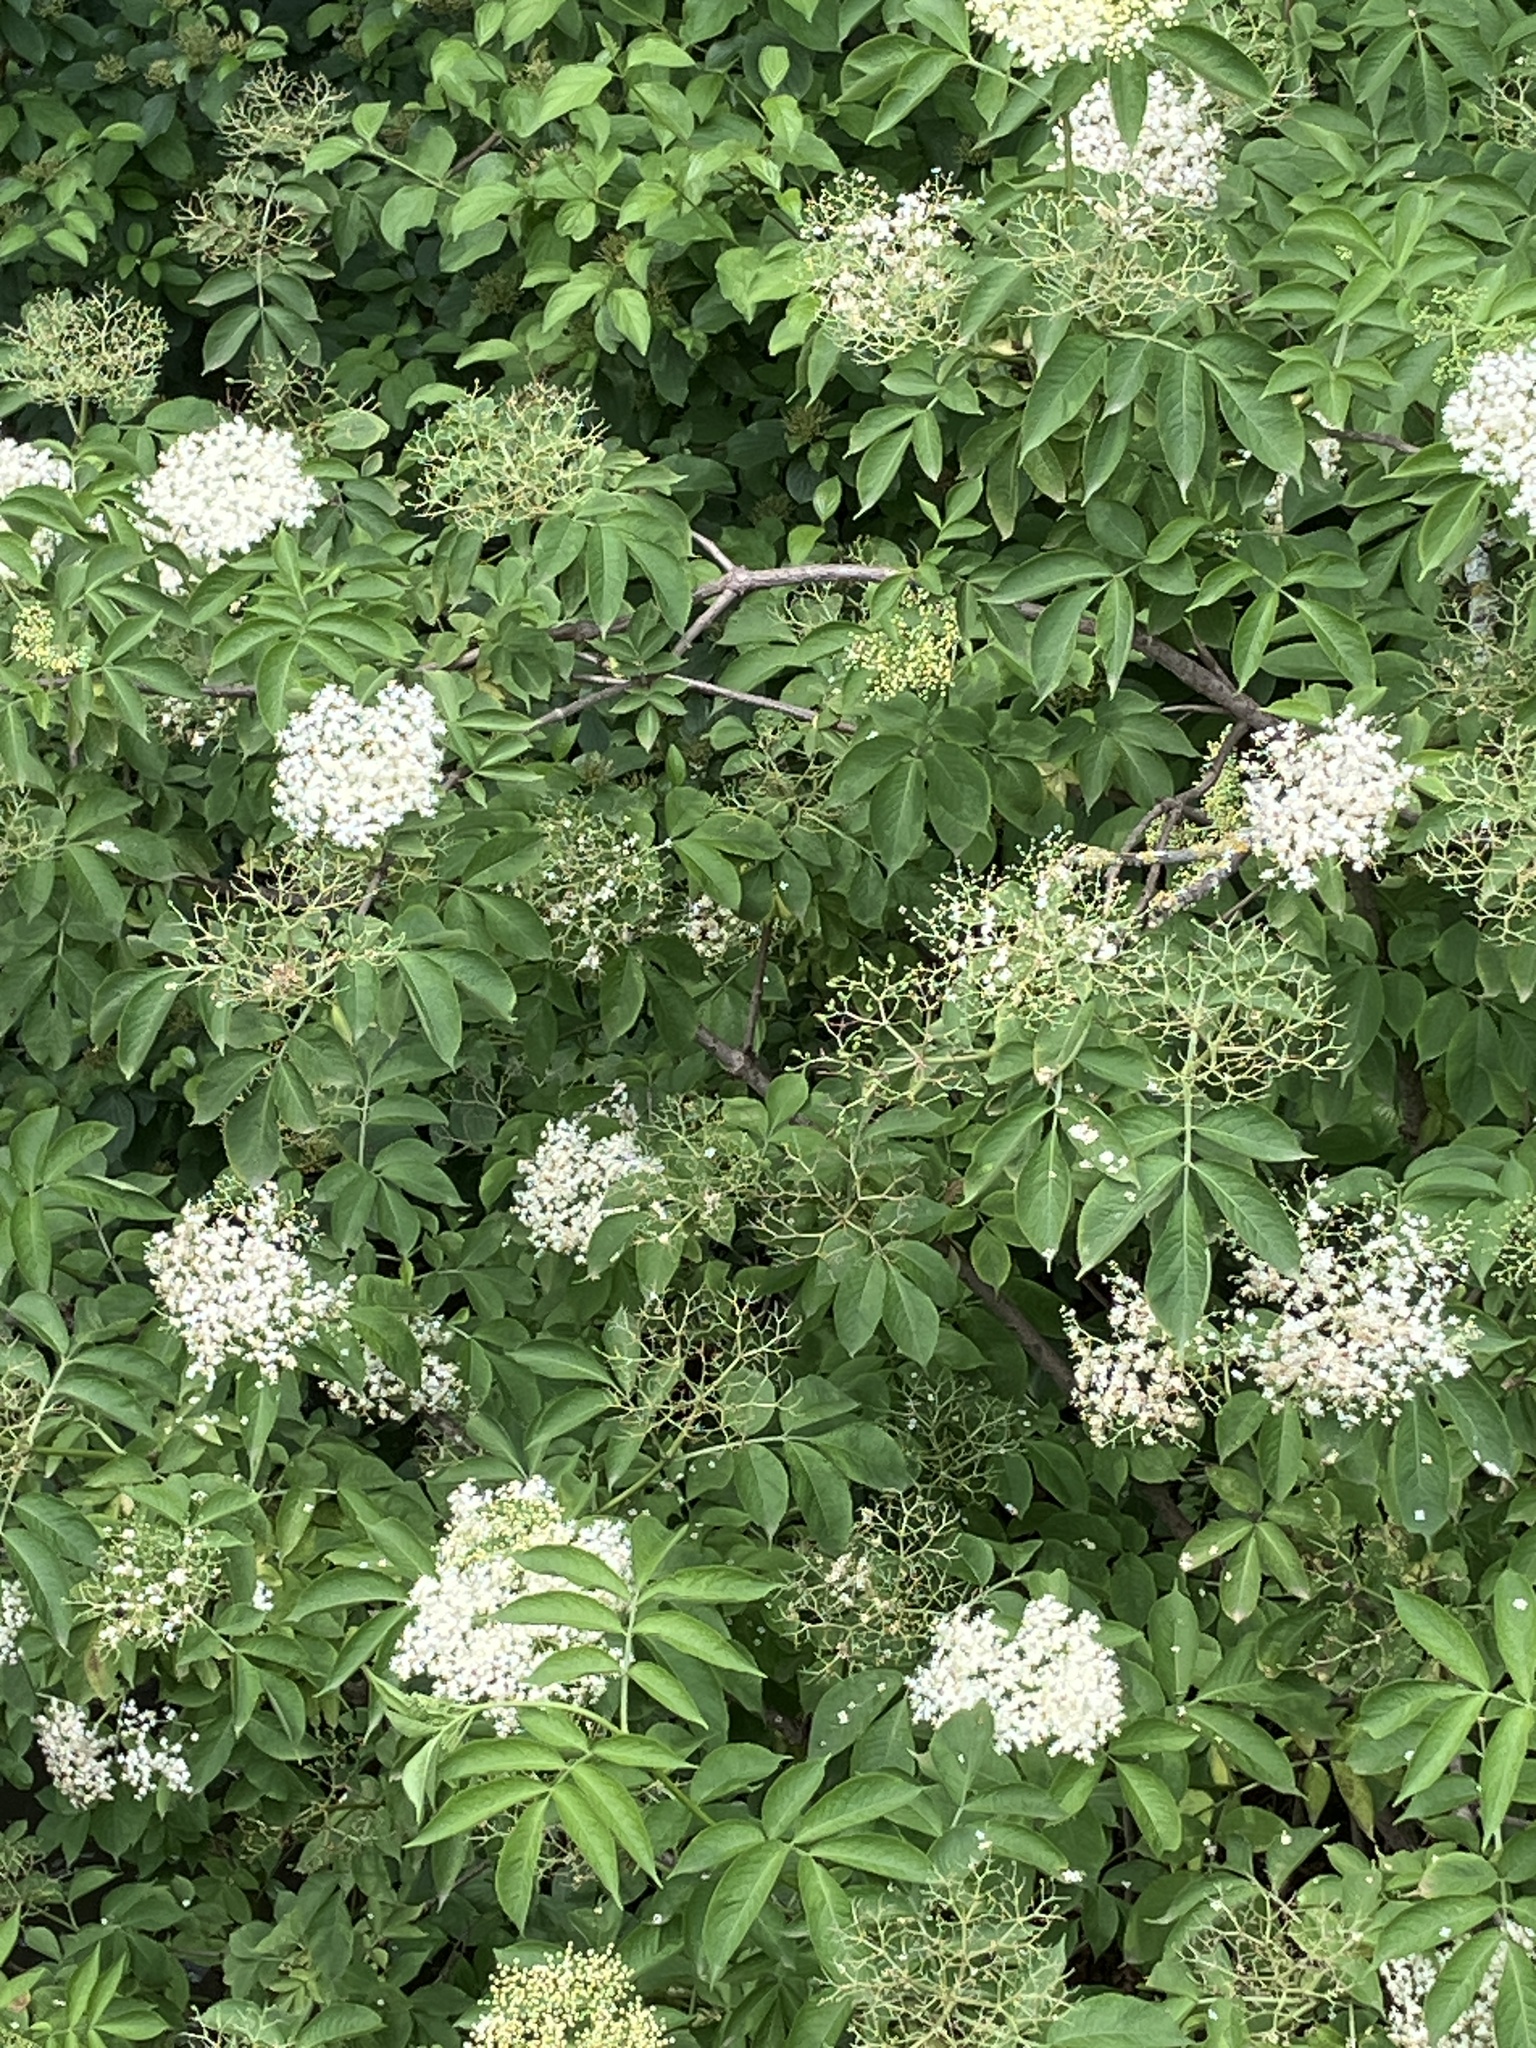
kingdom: Plantae
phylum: Tracheophyta
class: Magnoliopsida
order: Dipsacales
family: Viburnaceae
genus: Sambucus
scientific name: Sambucus nigra
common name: Elder
